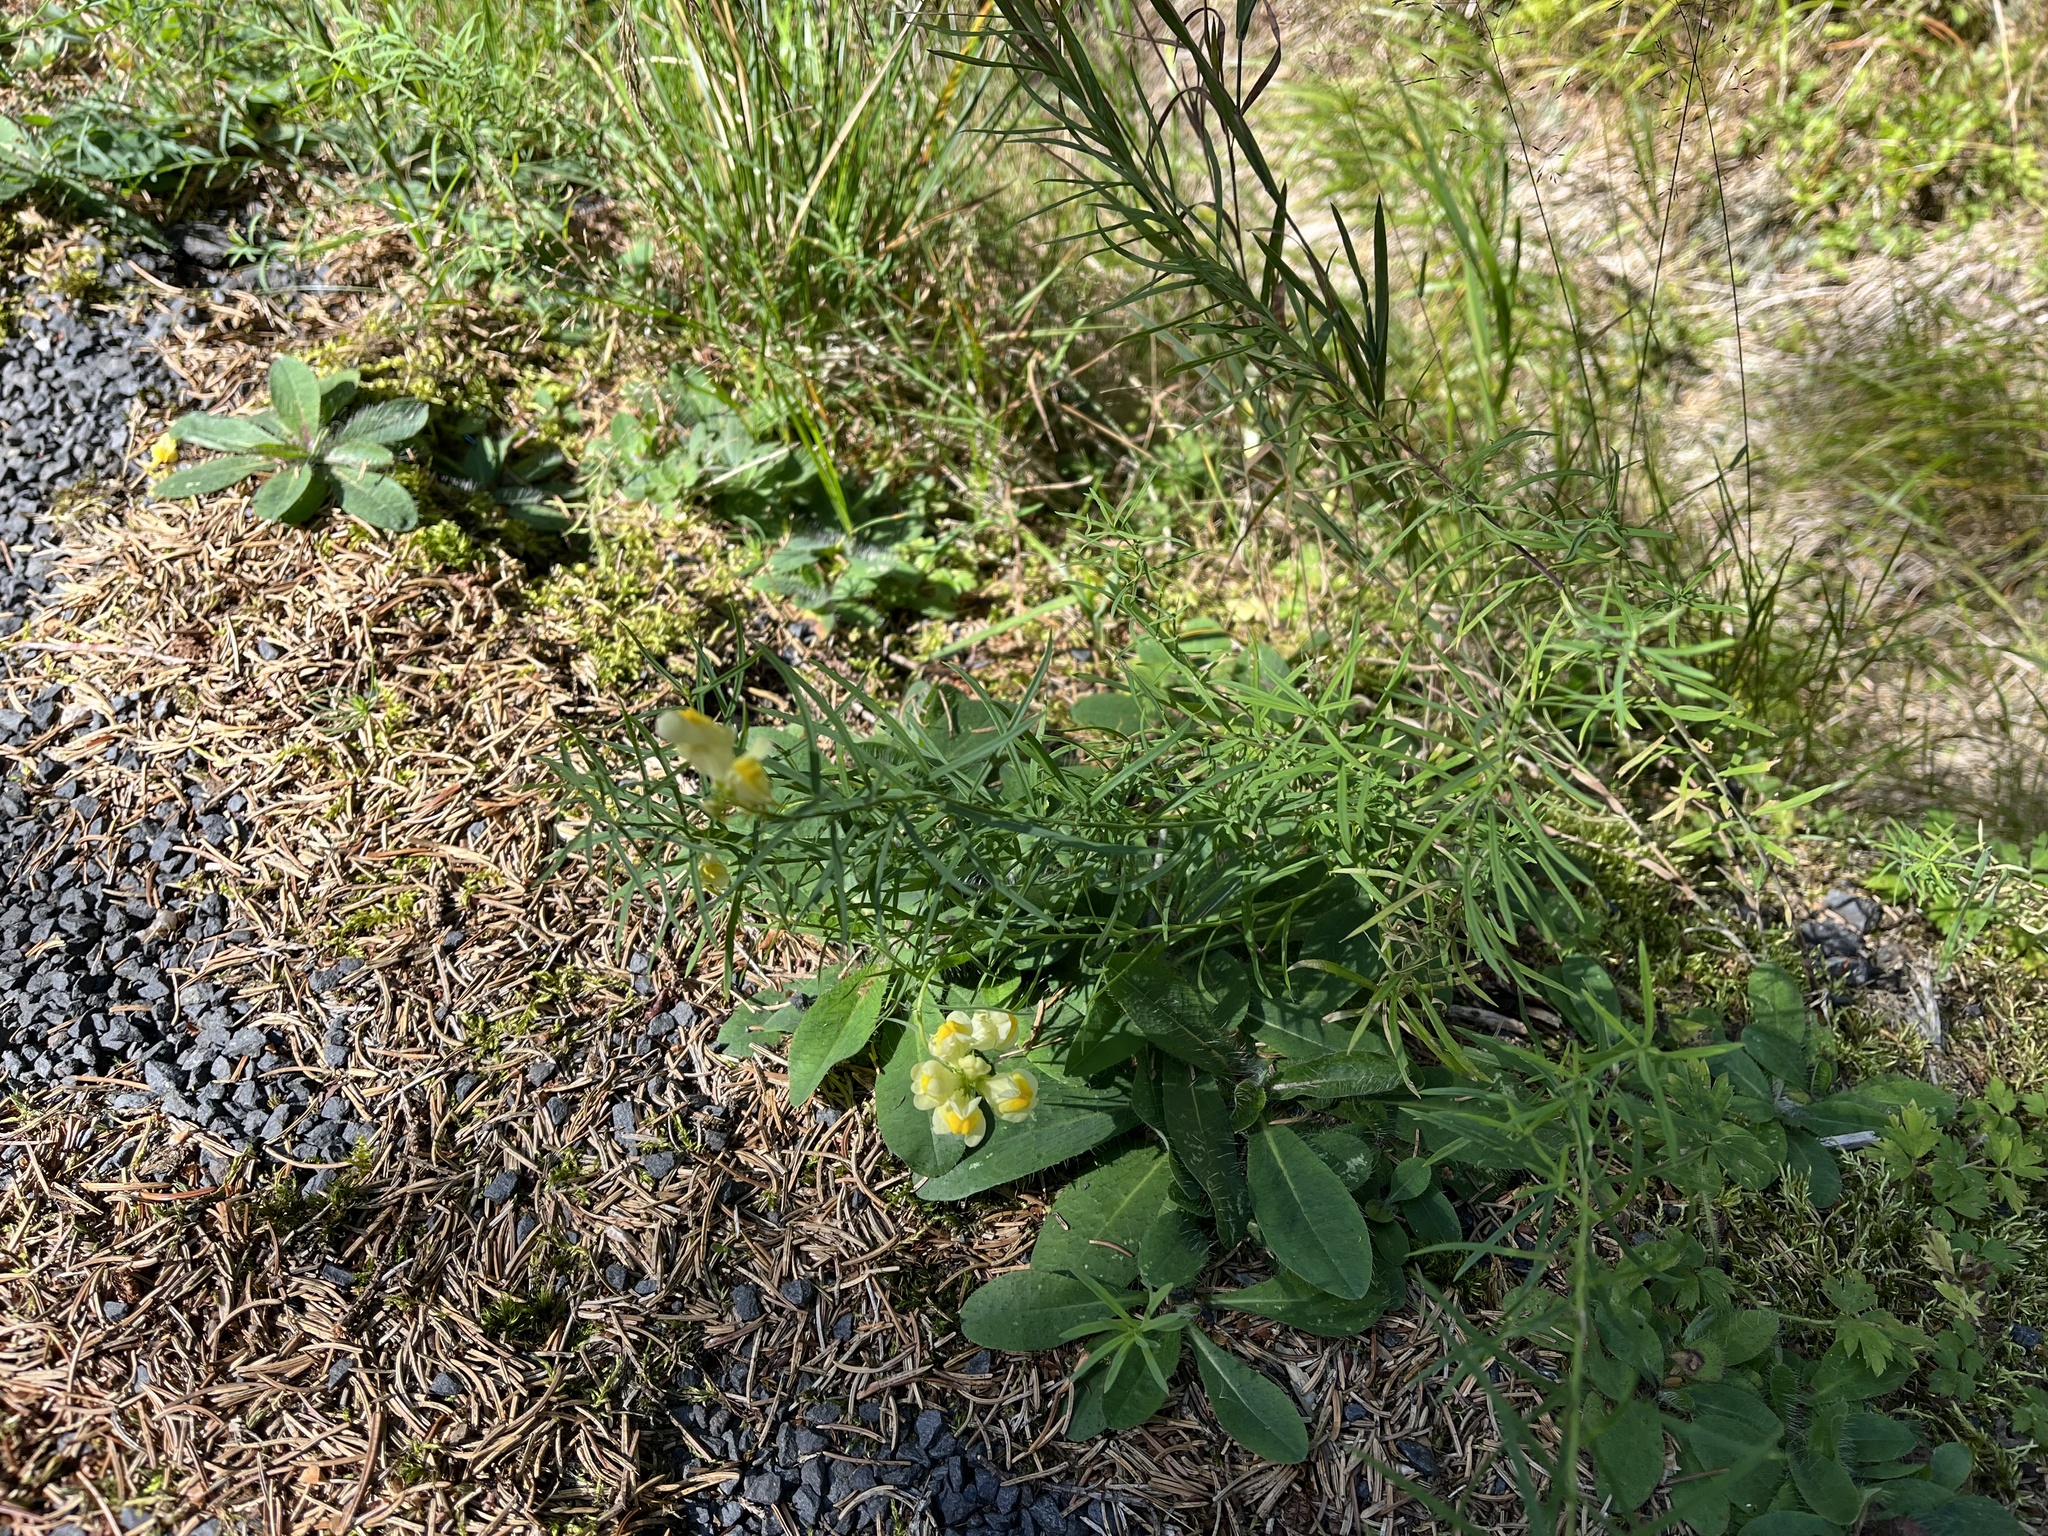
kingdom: Plantae
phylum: Tracheophyta
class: Magnoliopsida
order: Lamiales
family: Plantaginaceae
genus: Linaria
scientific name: Linaria vulgaris
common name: Butter and eggs
